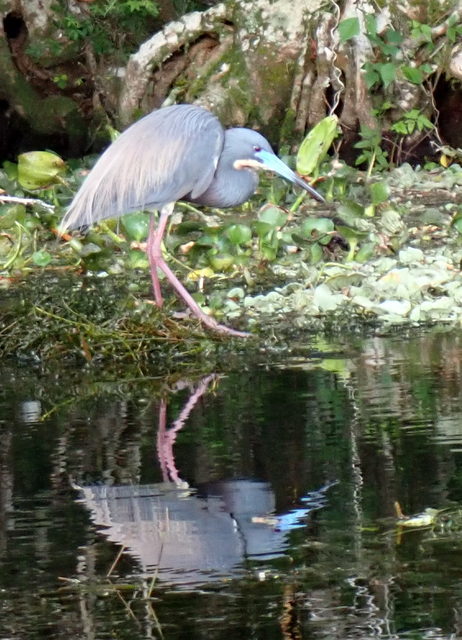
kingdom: Animalia
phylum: Chordata
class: Aves
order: Pelecaniformes
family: Ardeidae
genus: Egretta
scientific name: Egretta tricolor
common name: Tricolored heron
